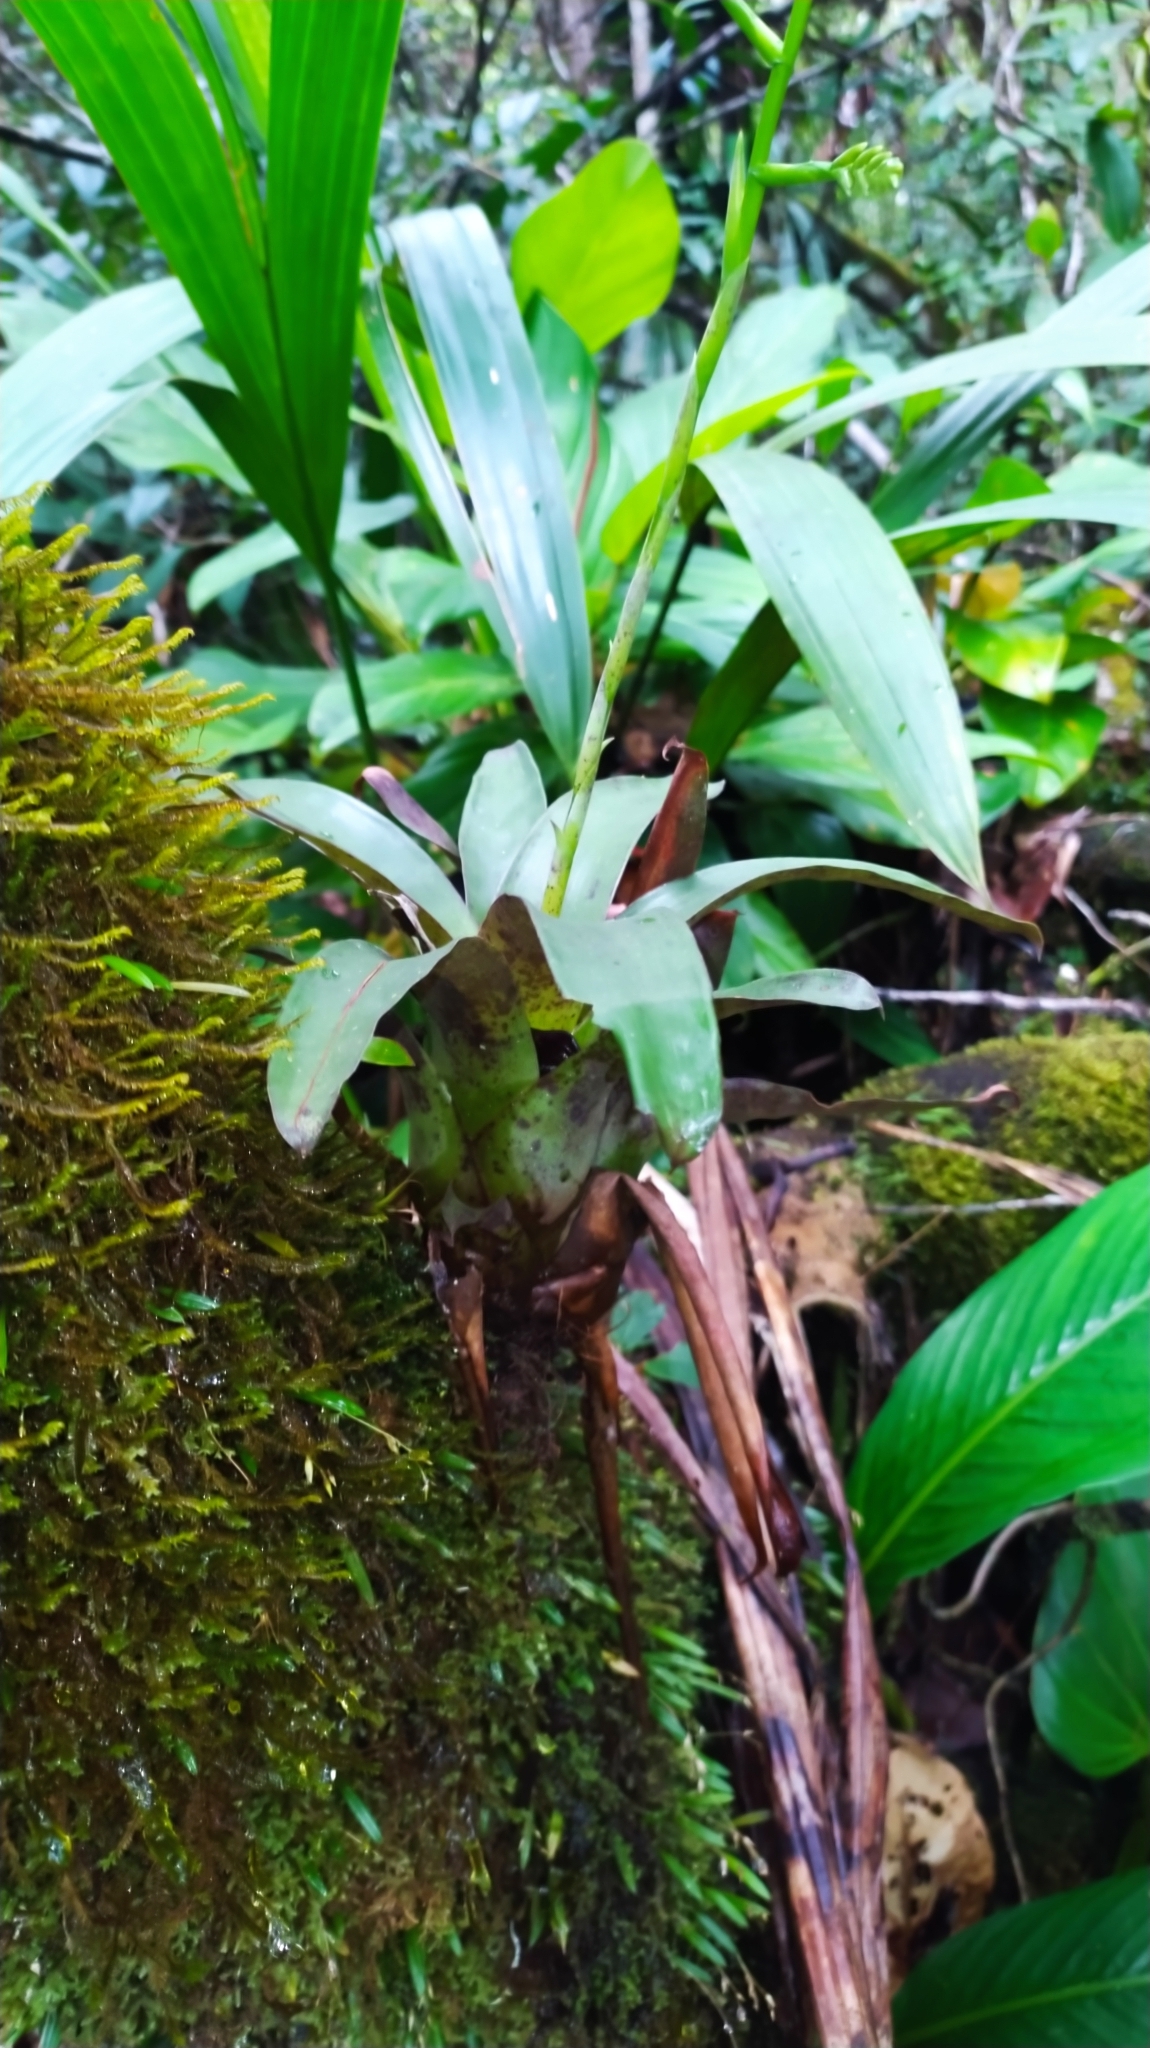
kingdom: Plantae
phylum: Tracheophyta
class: Liliopsida
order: Poales
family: Bromeliaceae
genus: Racinaea
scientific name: Racinaea spiculosa
